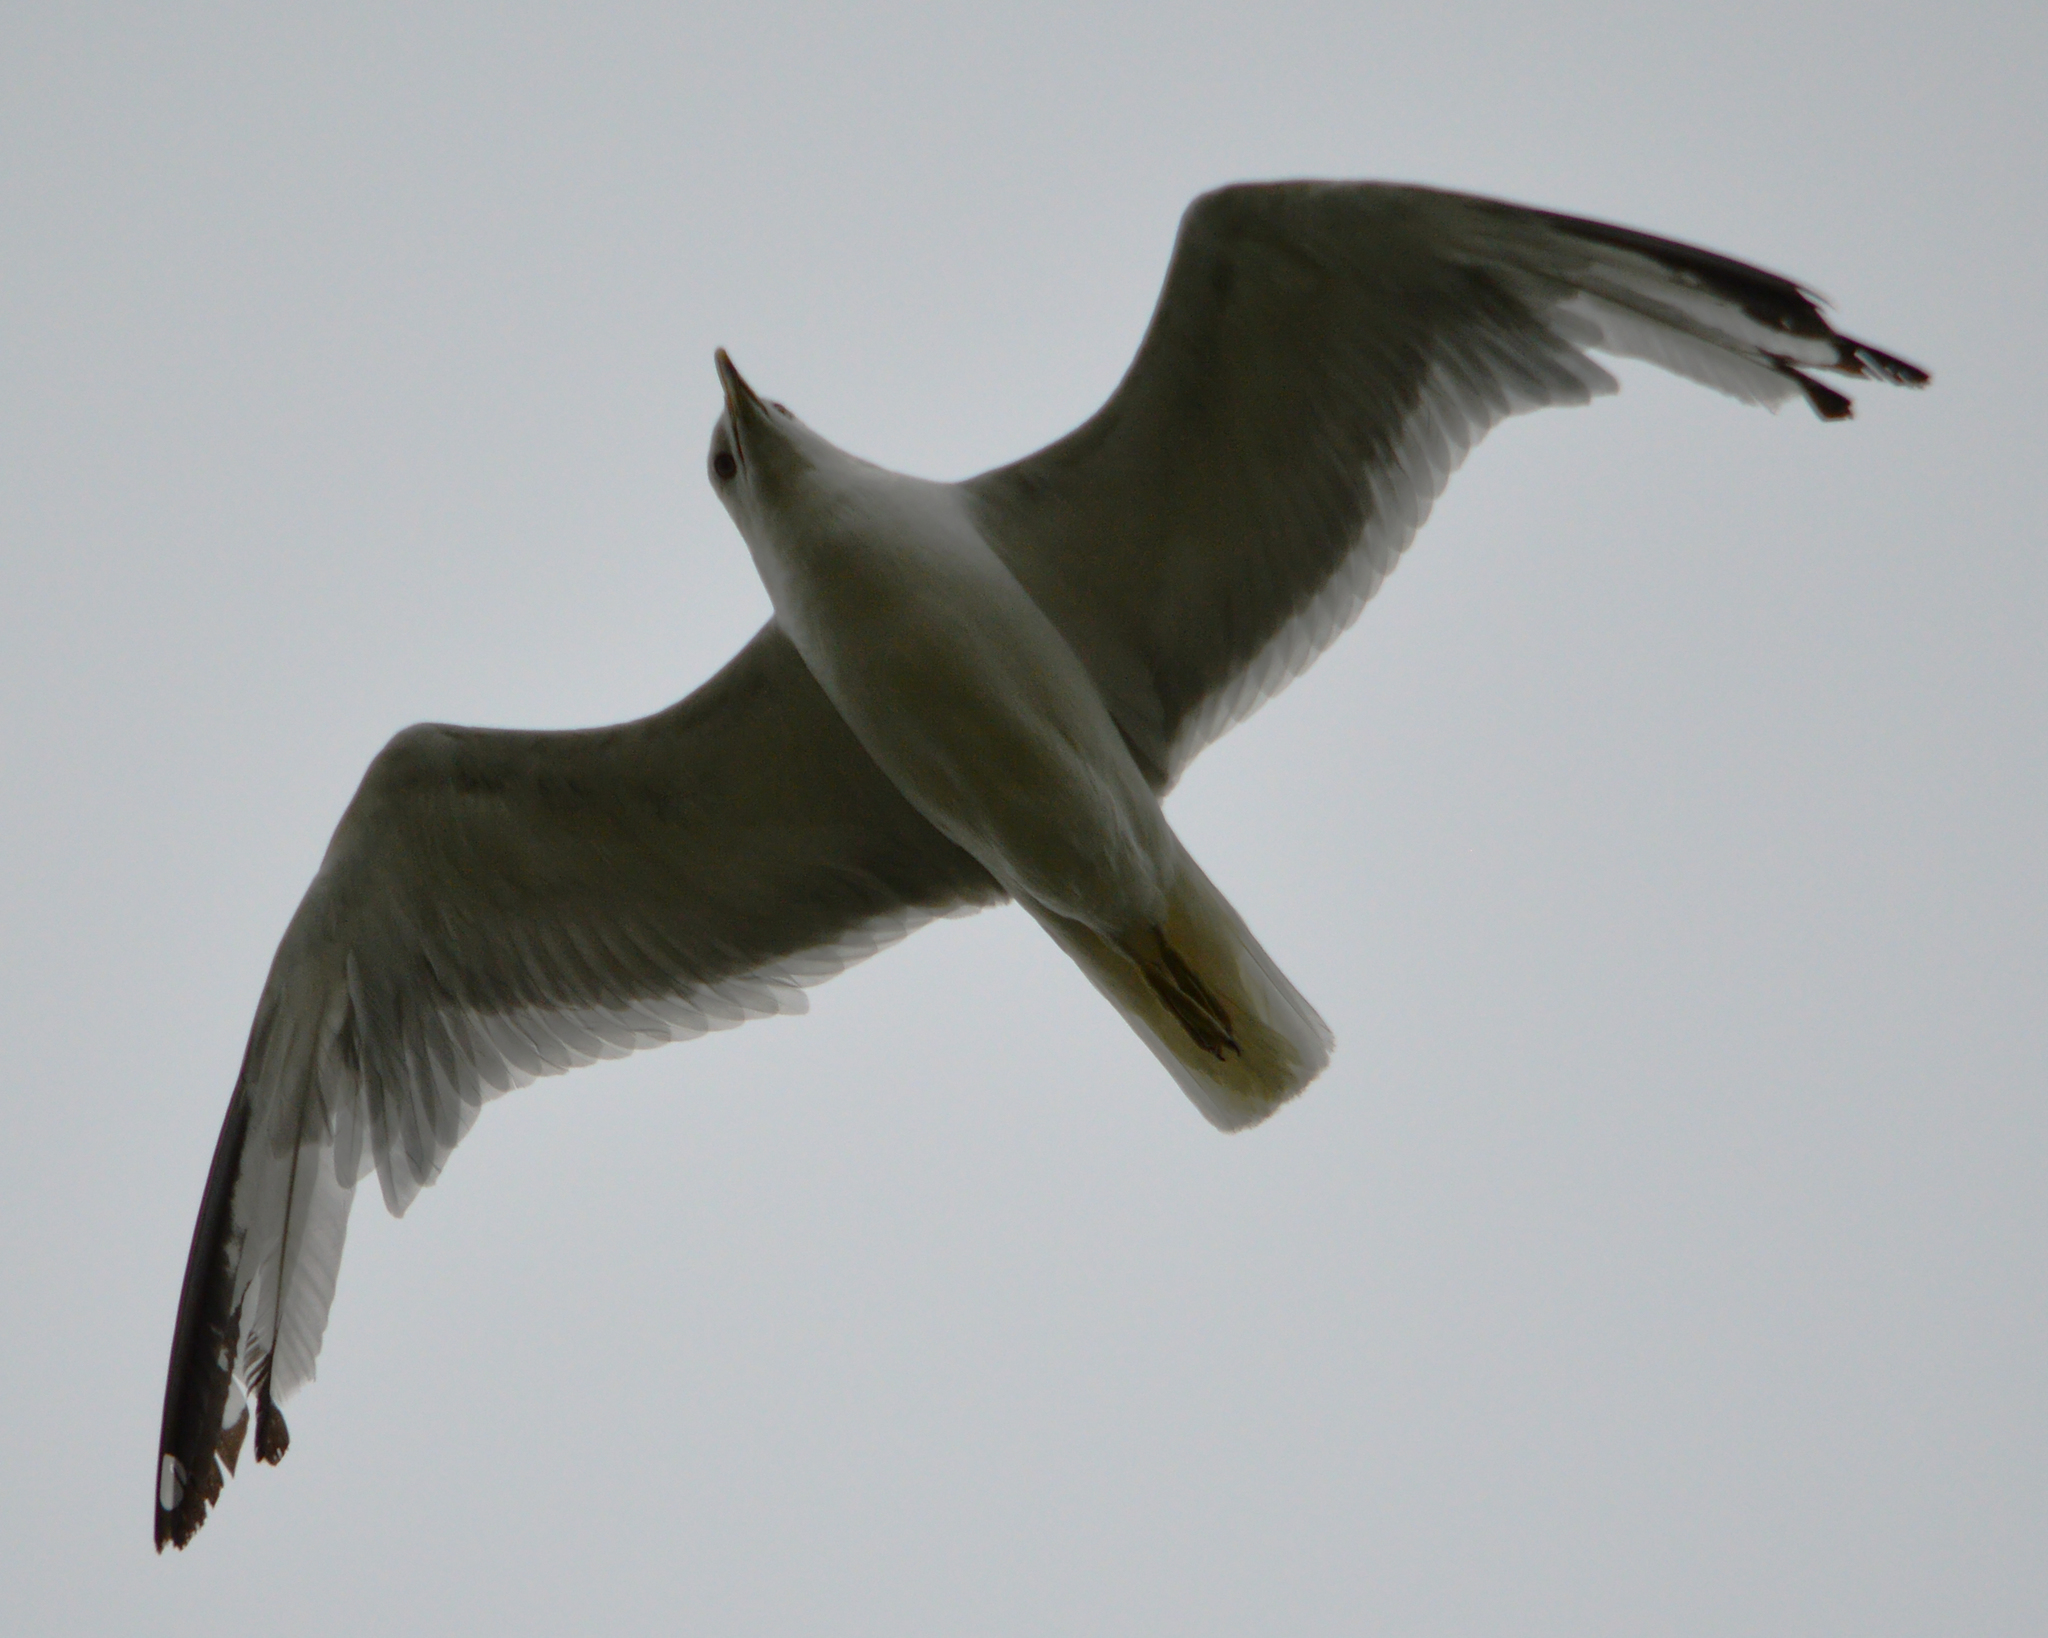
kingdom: Animalia
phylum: Chordata
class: Aves
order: Charadriiformes
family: Laridae
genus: Larus
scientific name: Larus delawarensis
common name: Ring-billed gull
